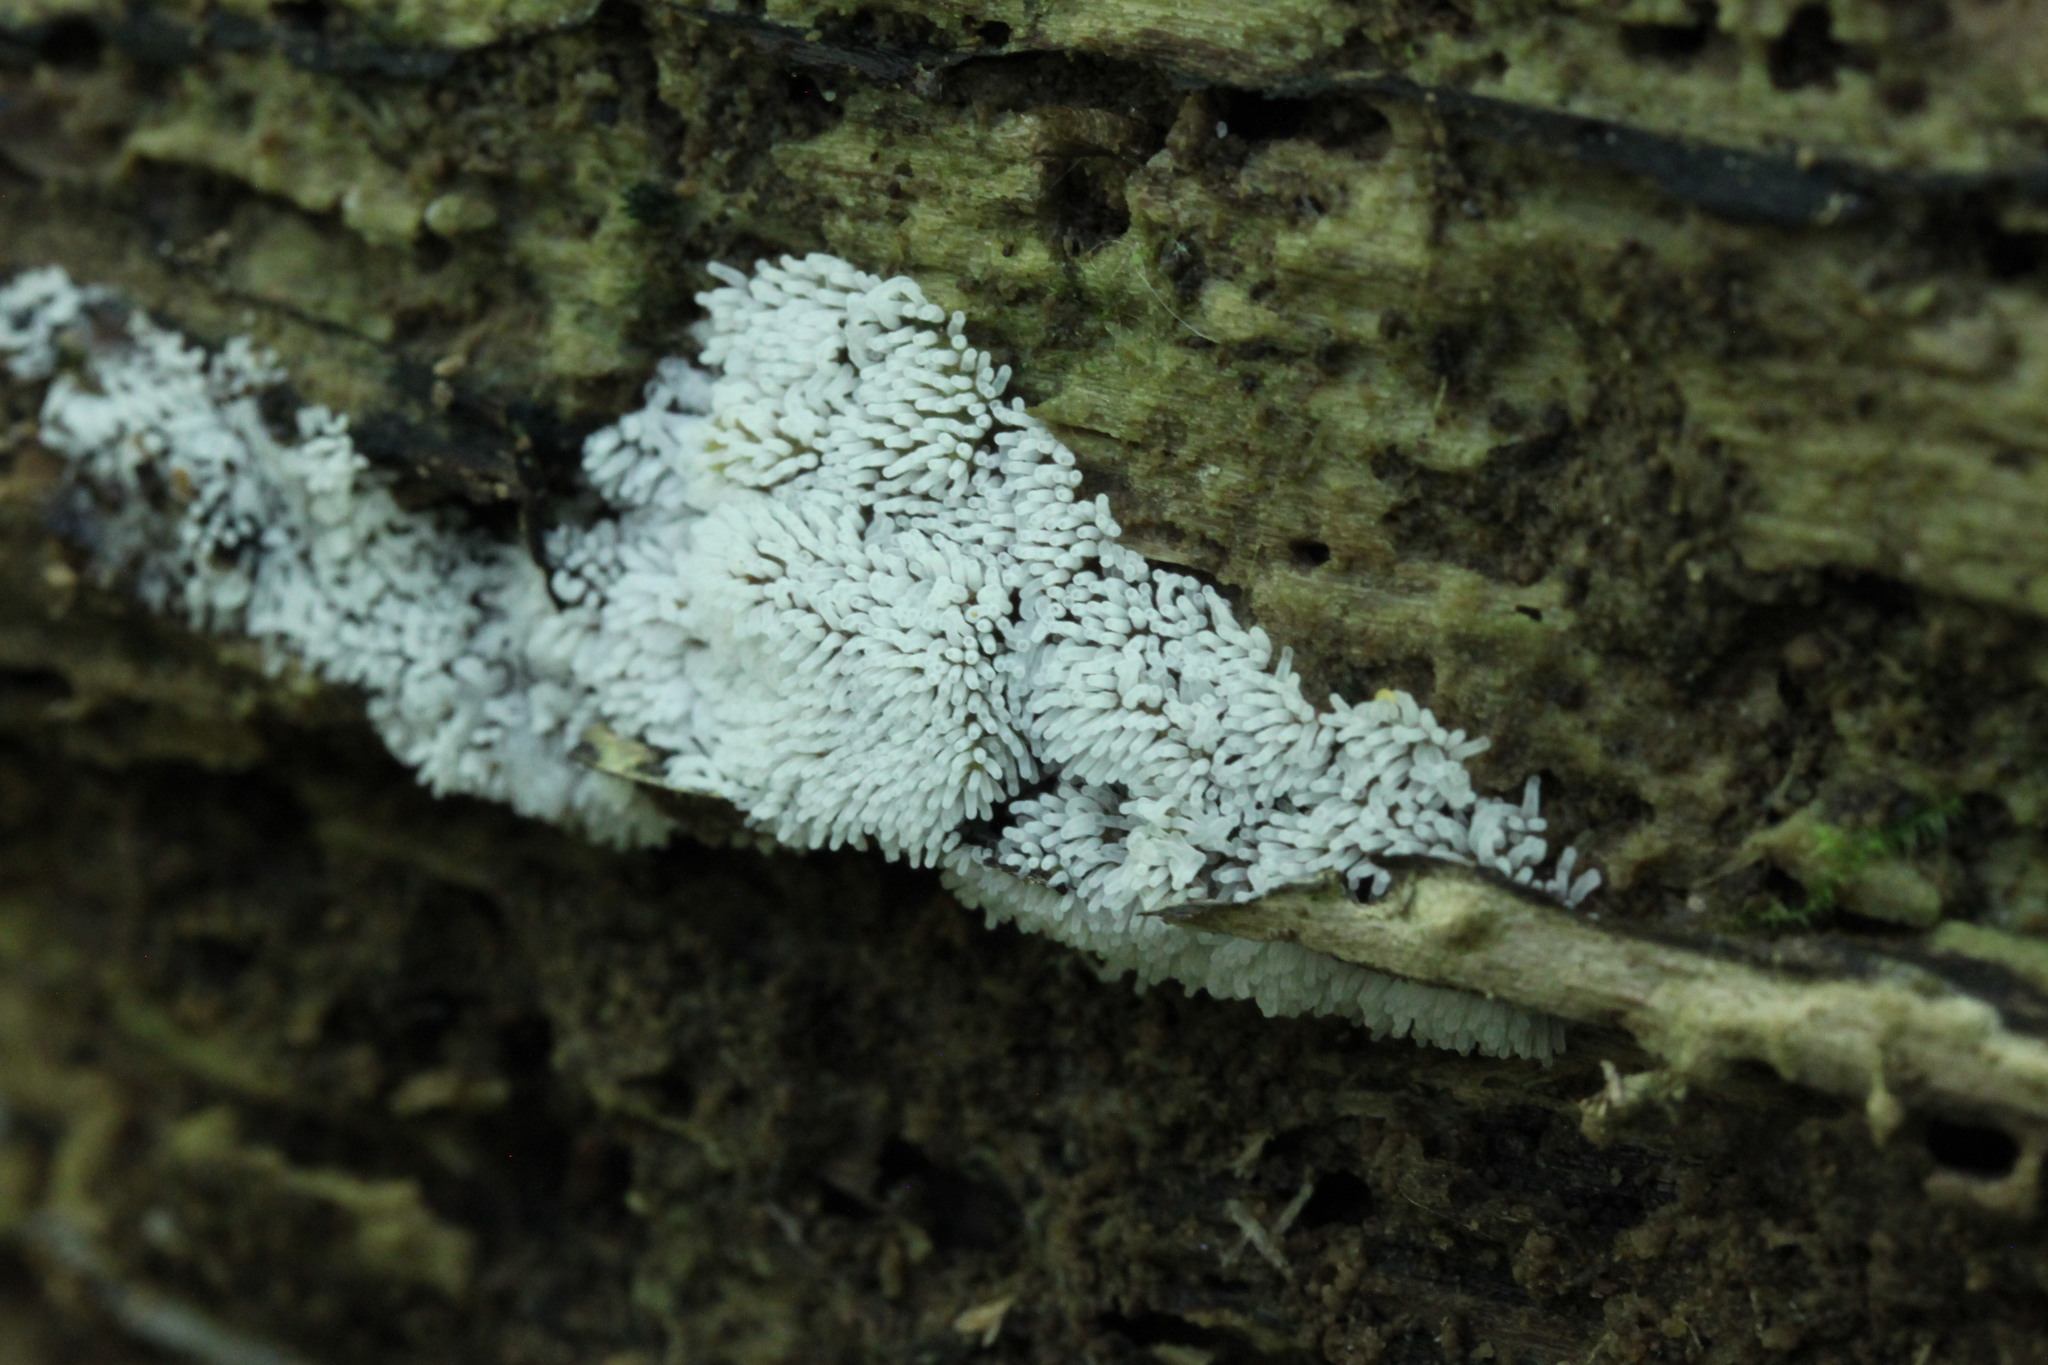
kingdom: Protozoa
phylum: Mycetozoa
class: Protosteliomycetes
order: Ceratiomyxales
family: Ceratiomyxaceae
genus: Ceratiomyxa
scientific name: Ceratiomyxa fruticulosa
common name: Honeycomb coral slime mold
